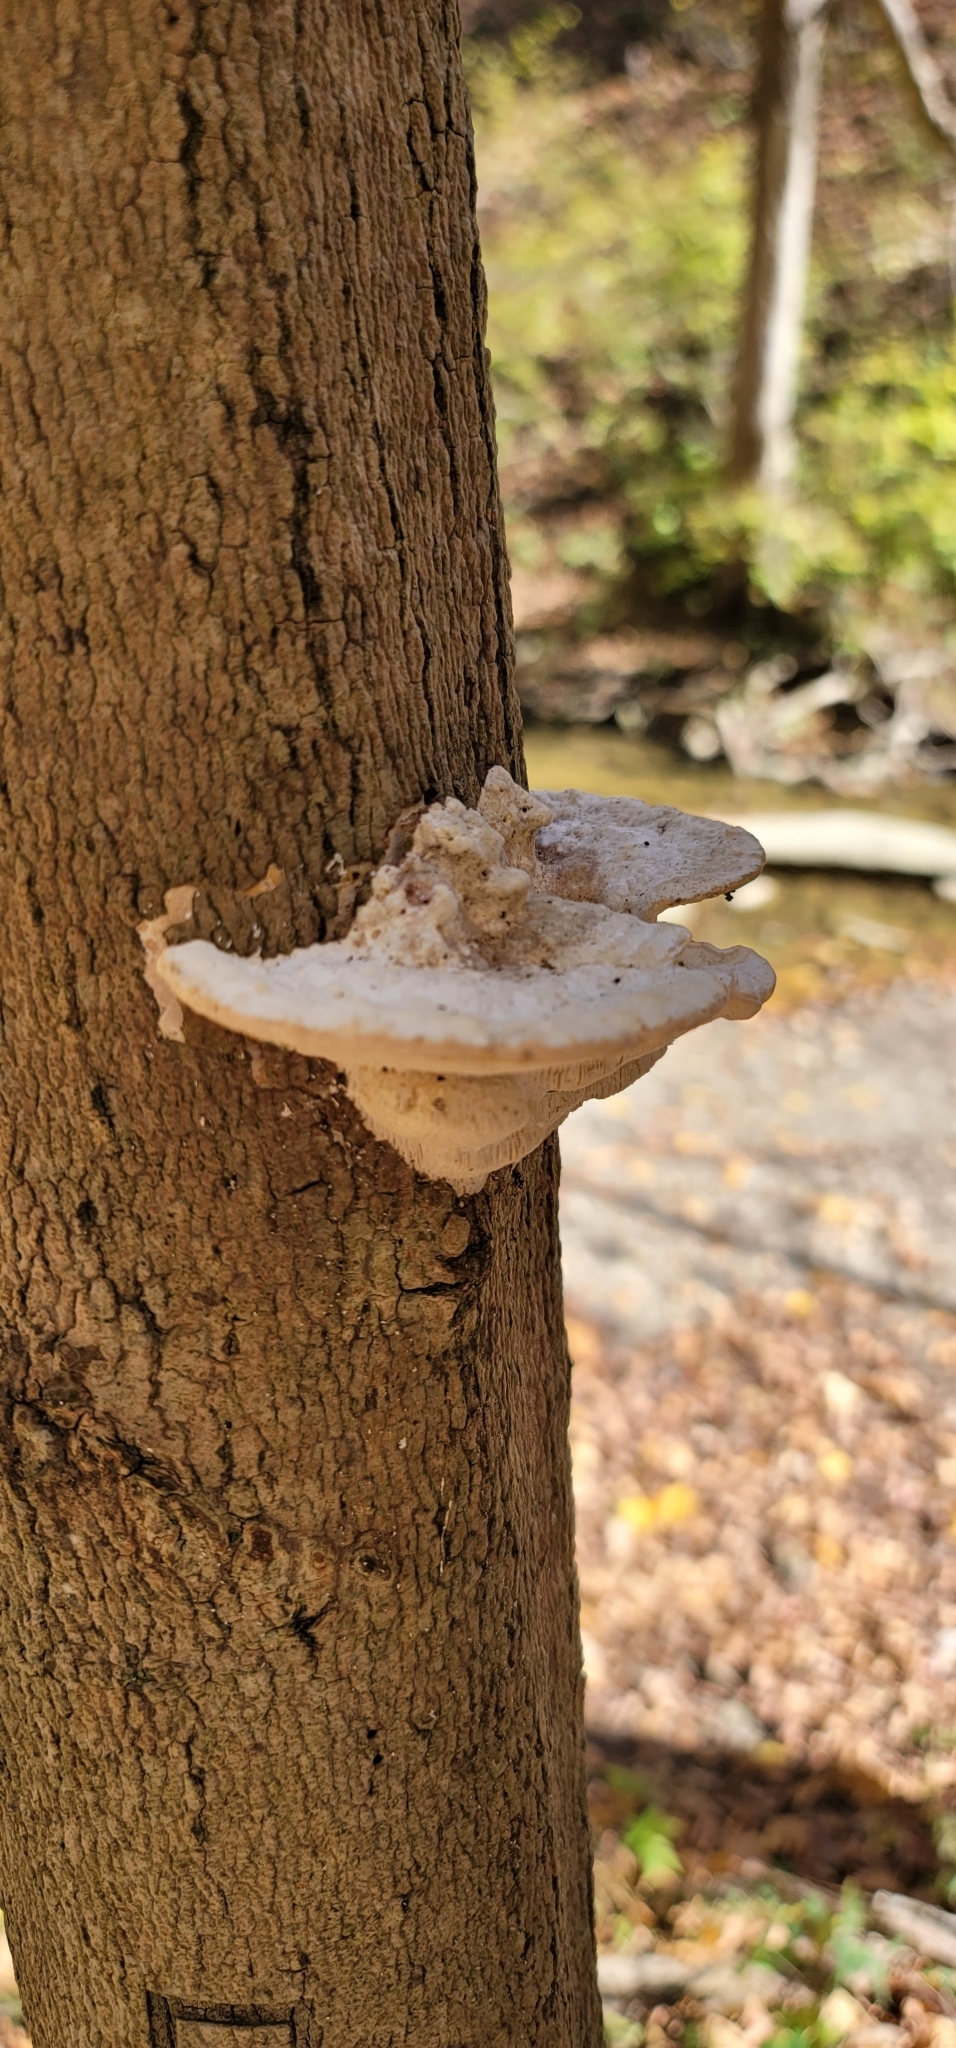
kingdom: Fungi
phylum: Basidiomycota
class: Agaricomycetes
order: Polyporales
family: Polyporaceae
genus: Trametes
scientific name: Trametes gibbosa
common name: Lumpy bracket
